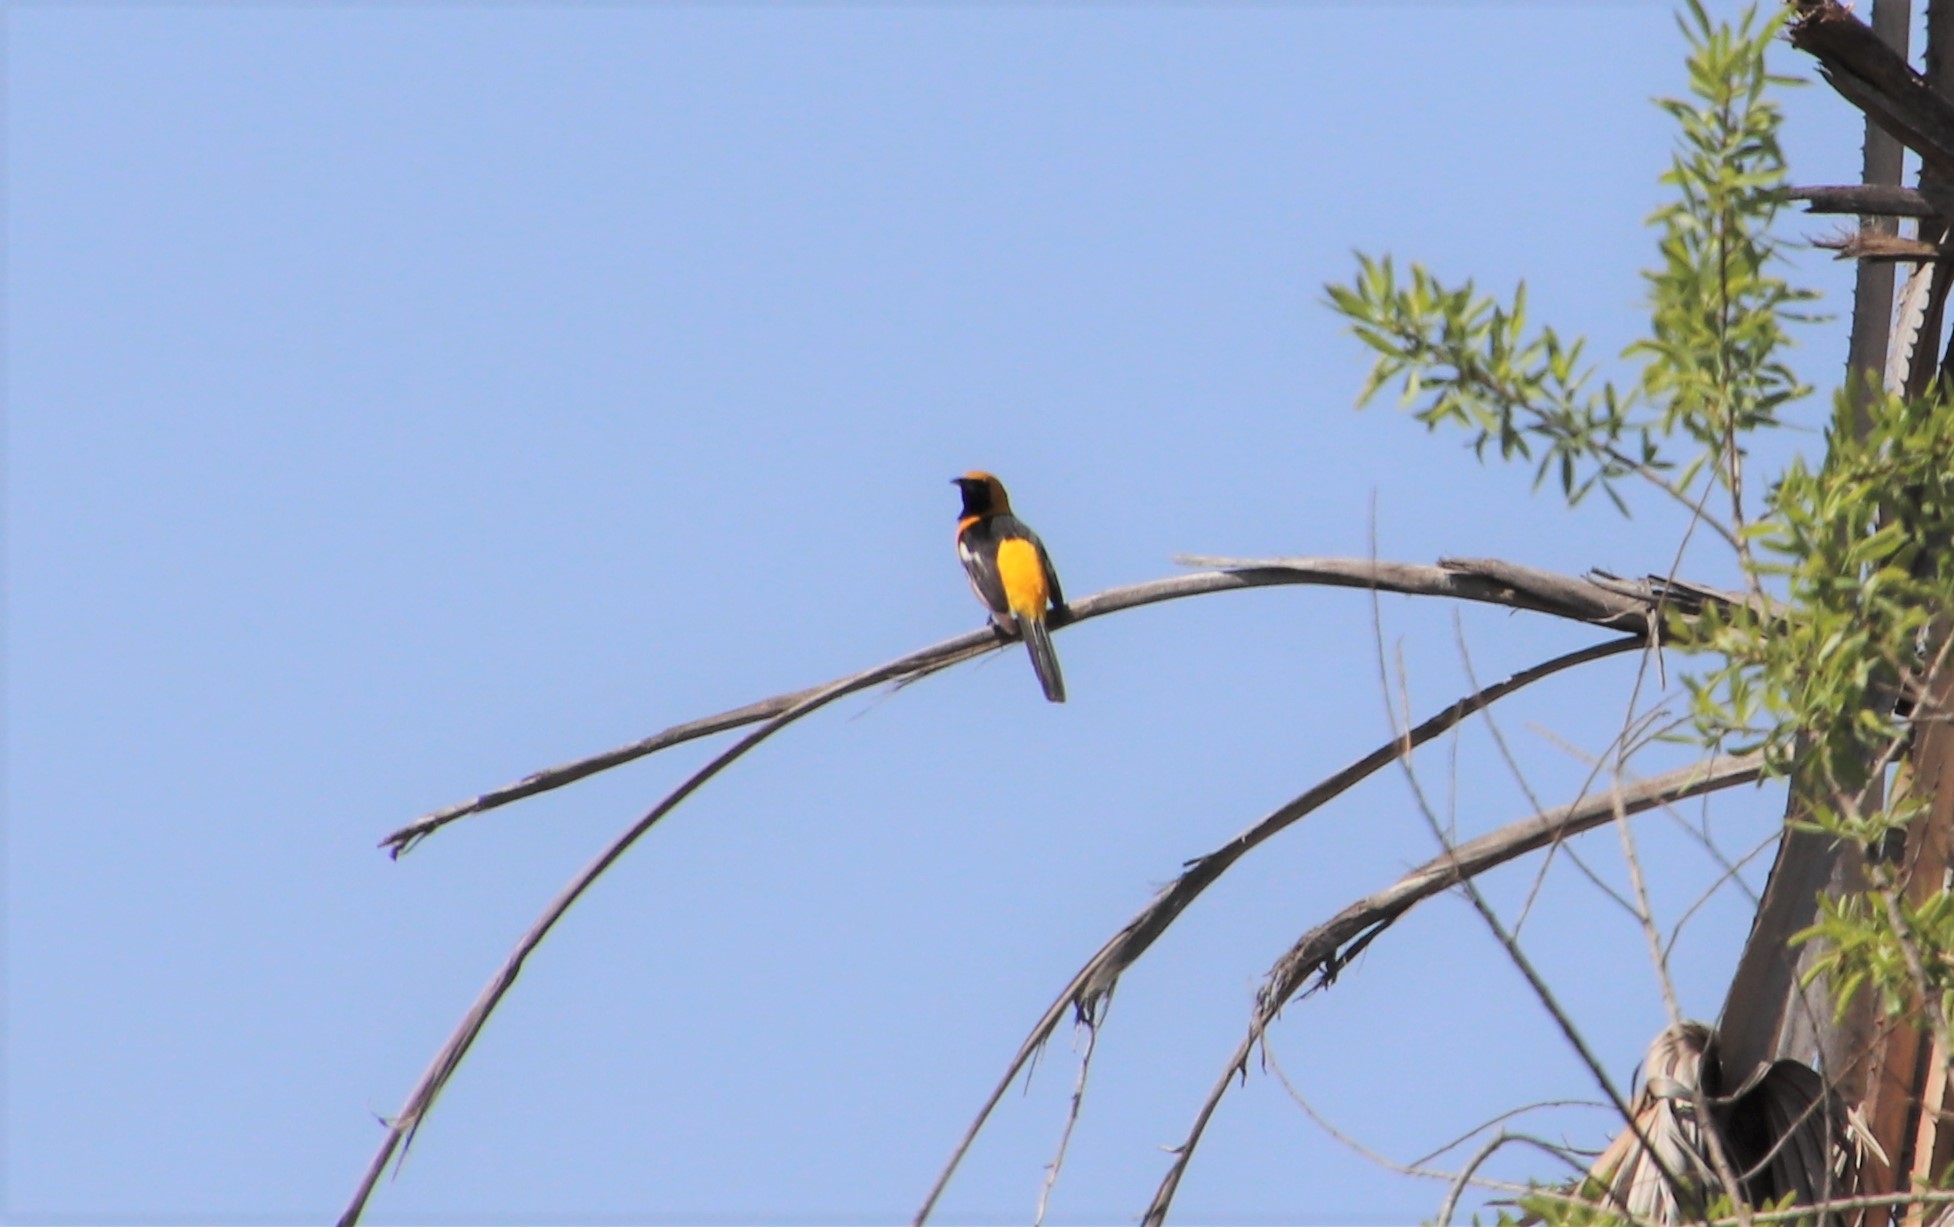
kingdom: Animalia
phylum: Chordata
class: Aves
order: Passeriformes
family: Icteridae
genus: Icterus
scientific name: Icterus cucullatus
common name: Hooded oriole
